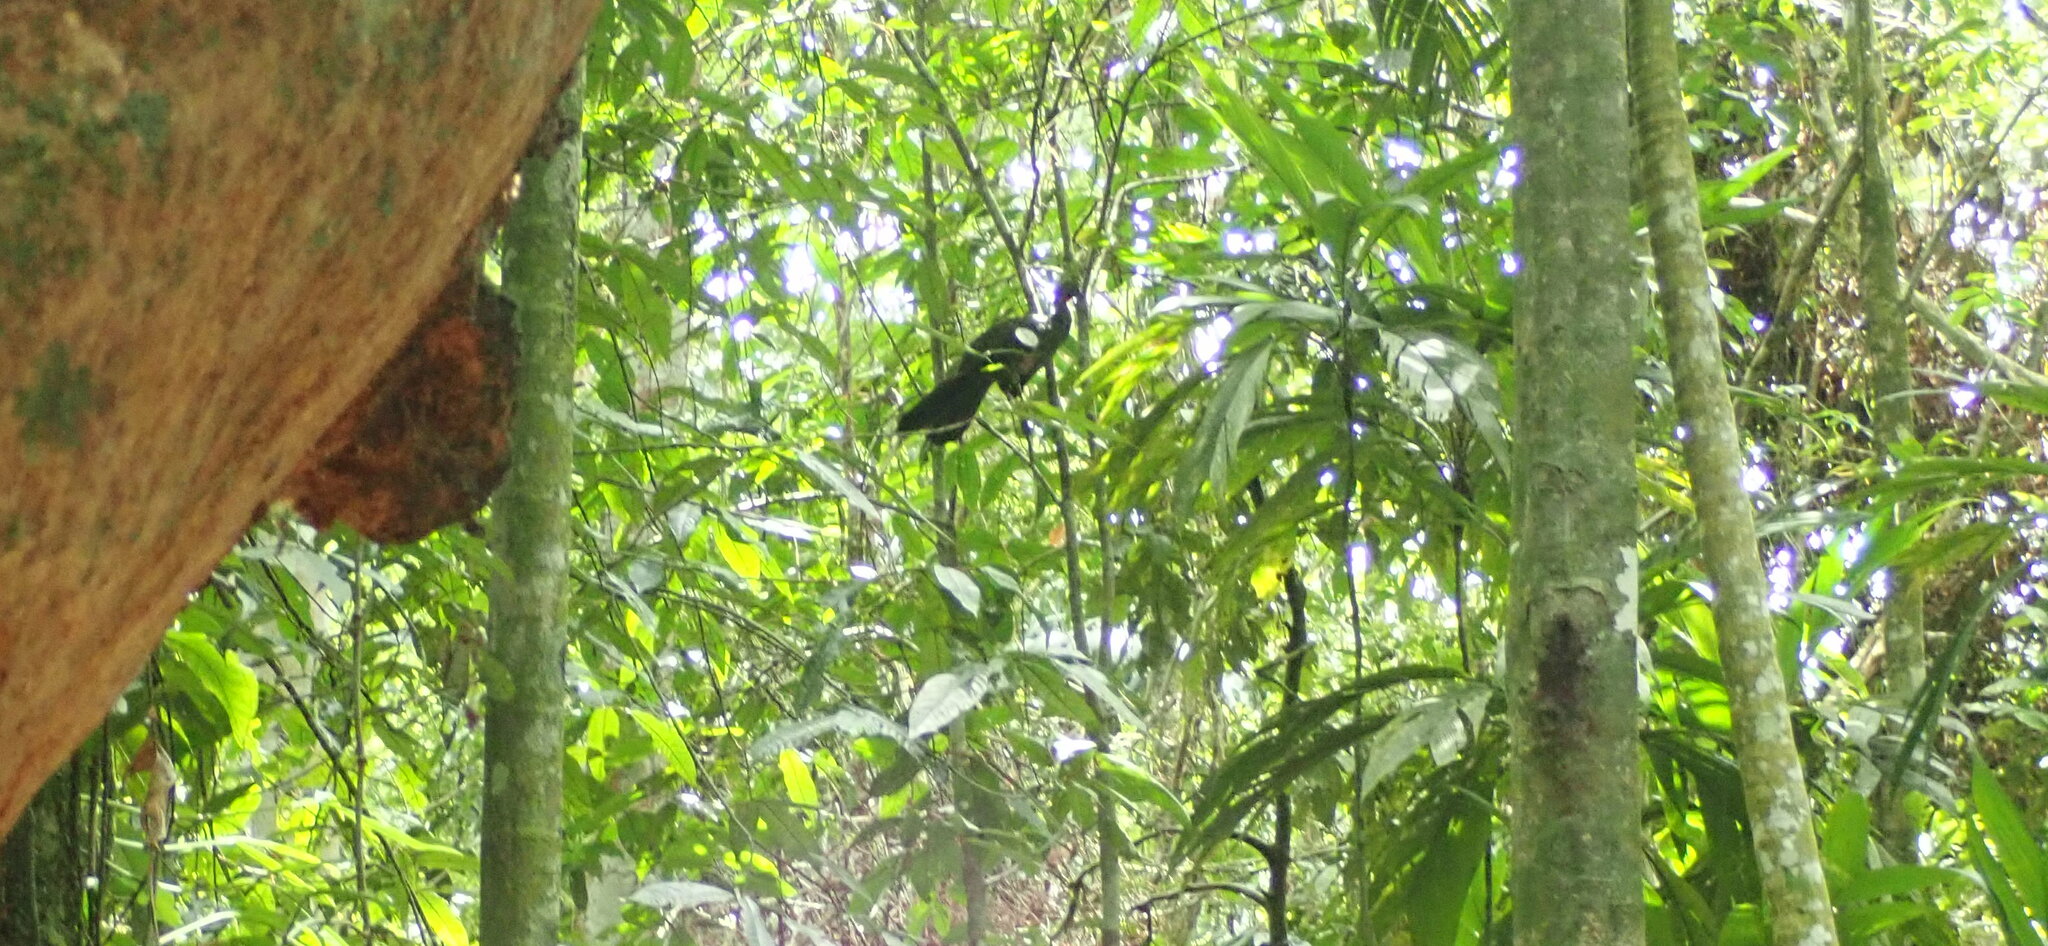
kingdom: Animalia
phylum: Chordata
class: Aves
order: Galliformes
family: Cracidae
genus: Penelope
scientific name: Penelope purpurascens
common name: Crested guan
